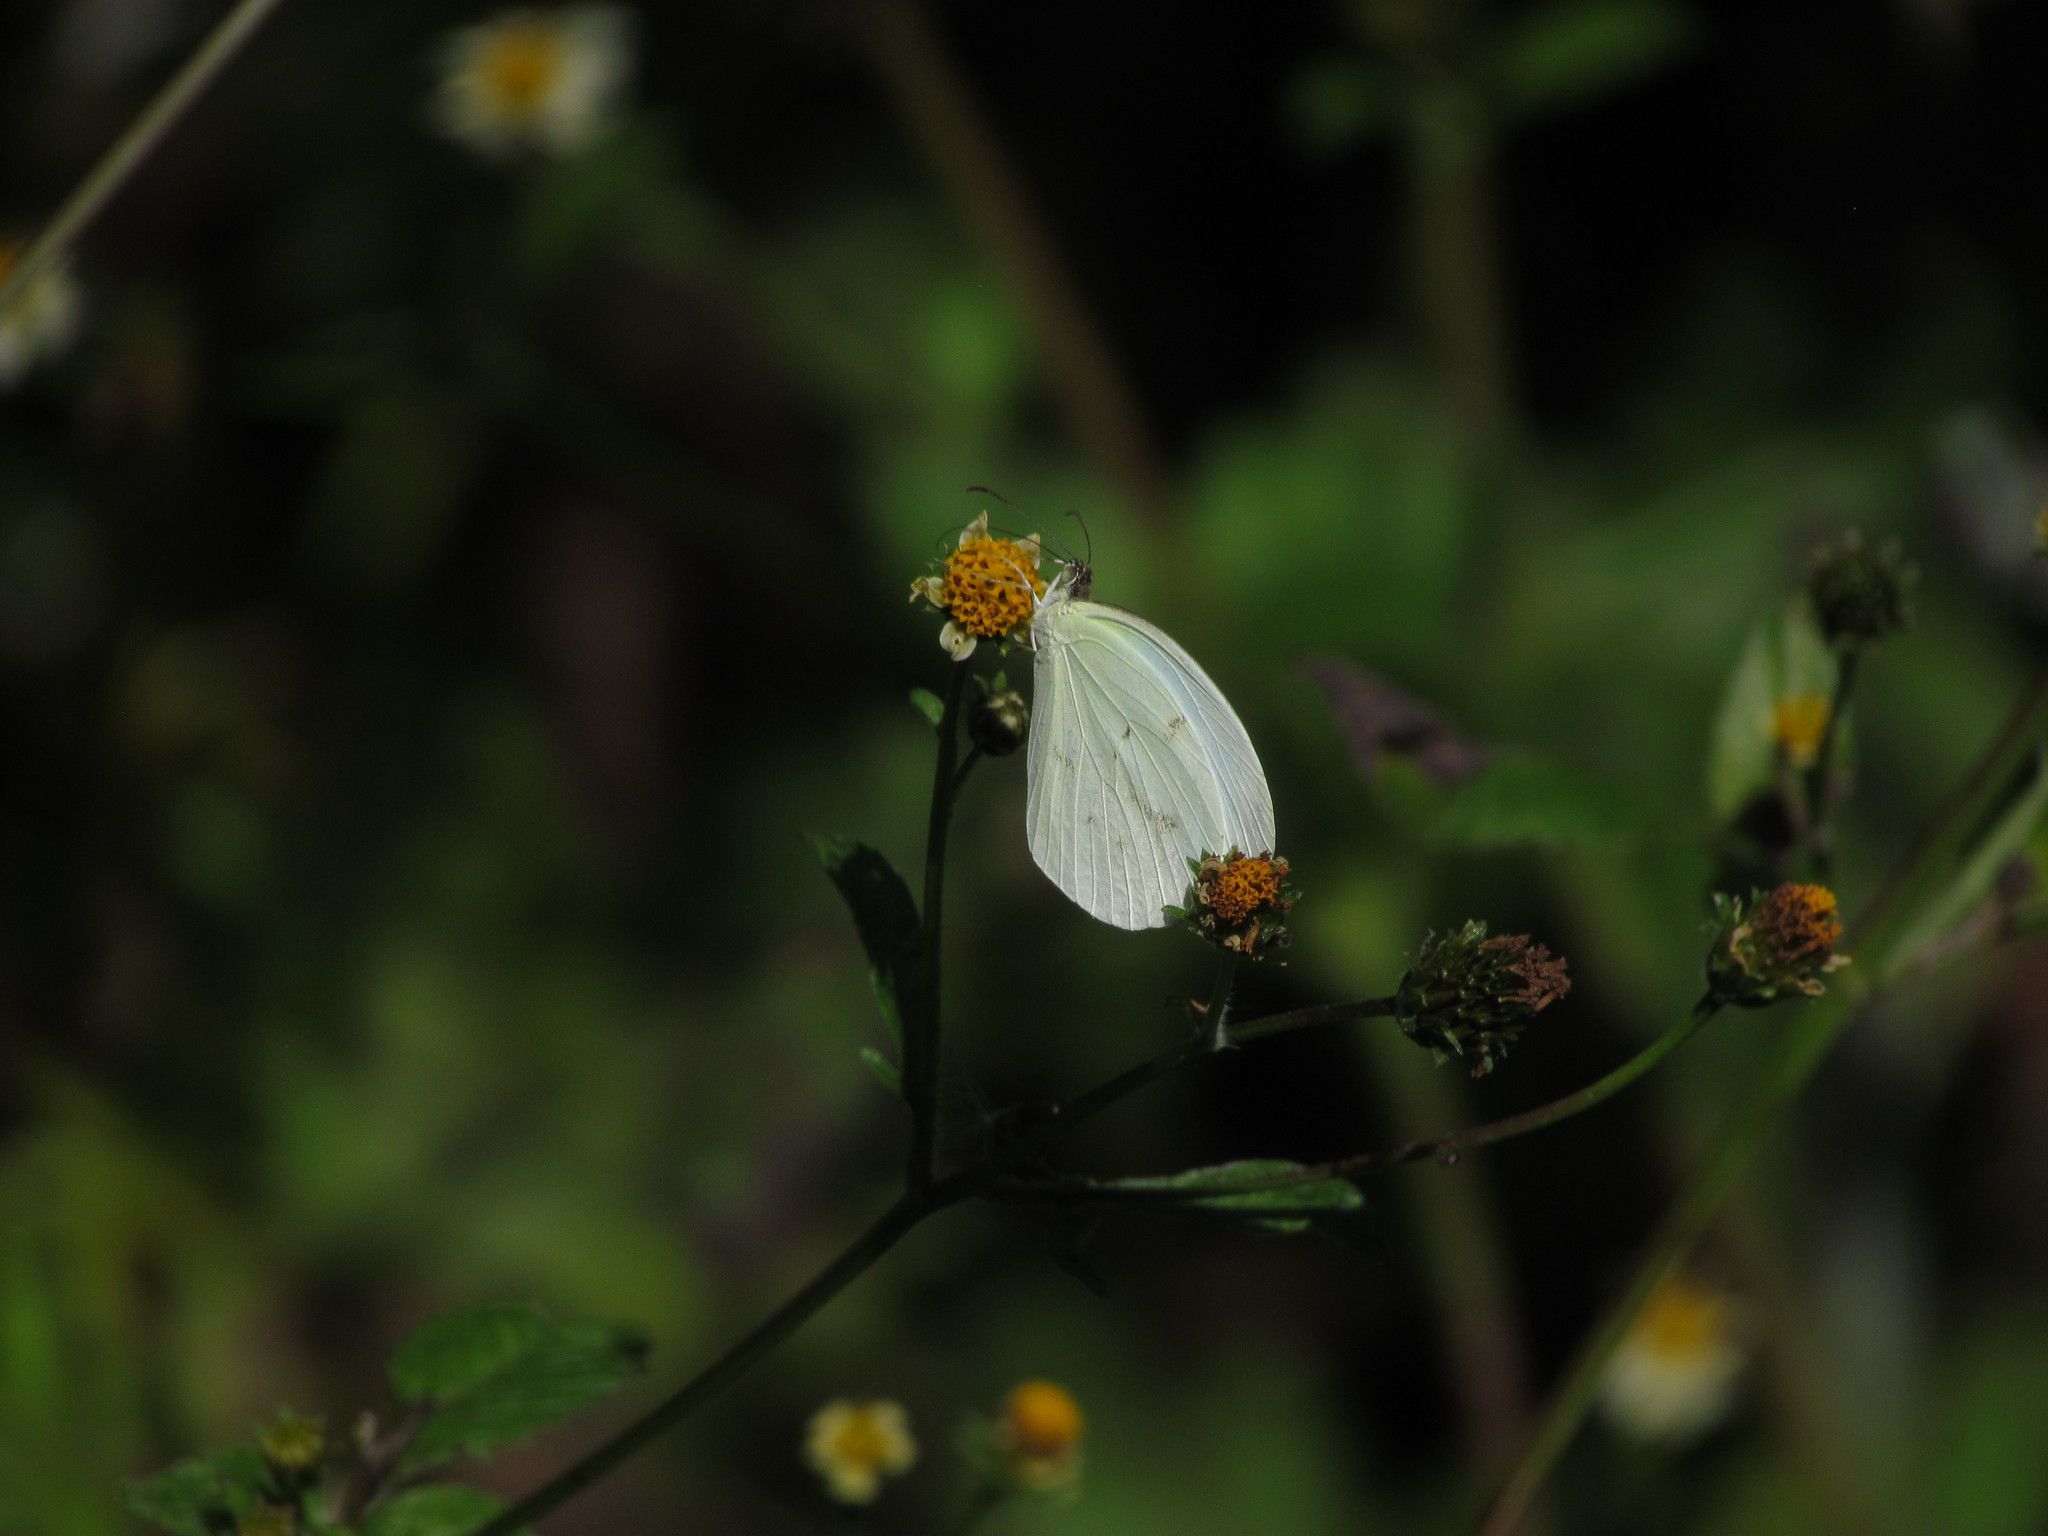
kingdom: Animalia
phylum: Arthropoda
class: Insecta
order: Lepidoptera
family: Pieridae
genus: Abaeis
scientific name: Abaeis albula
